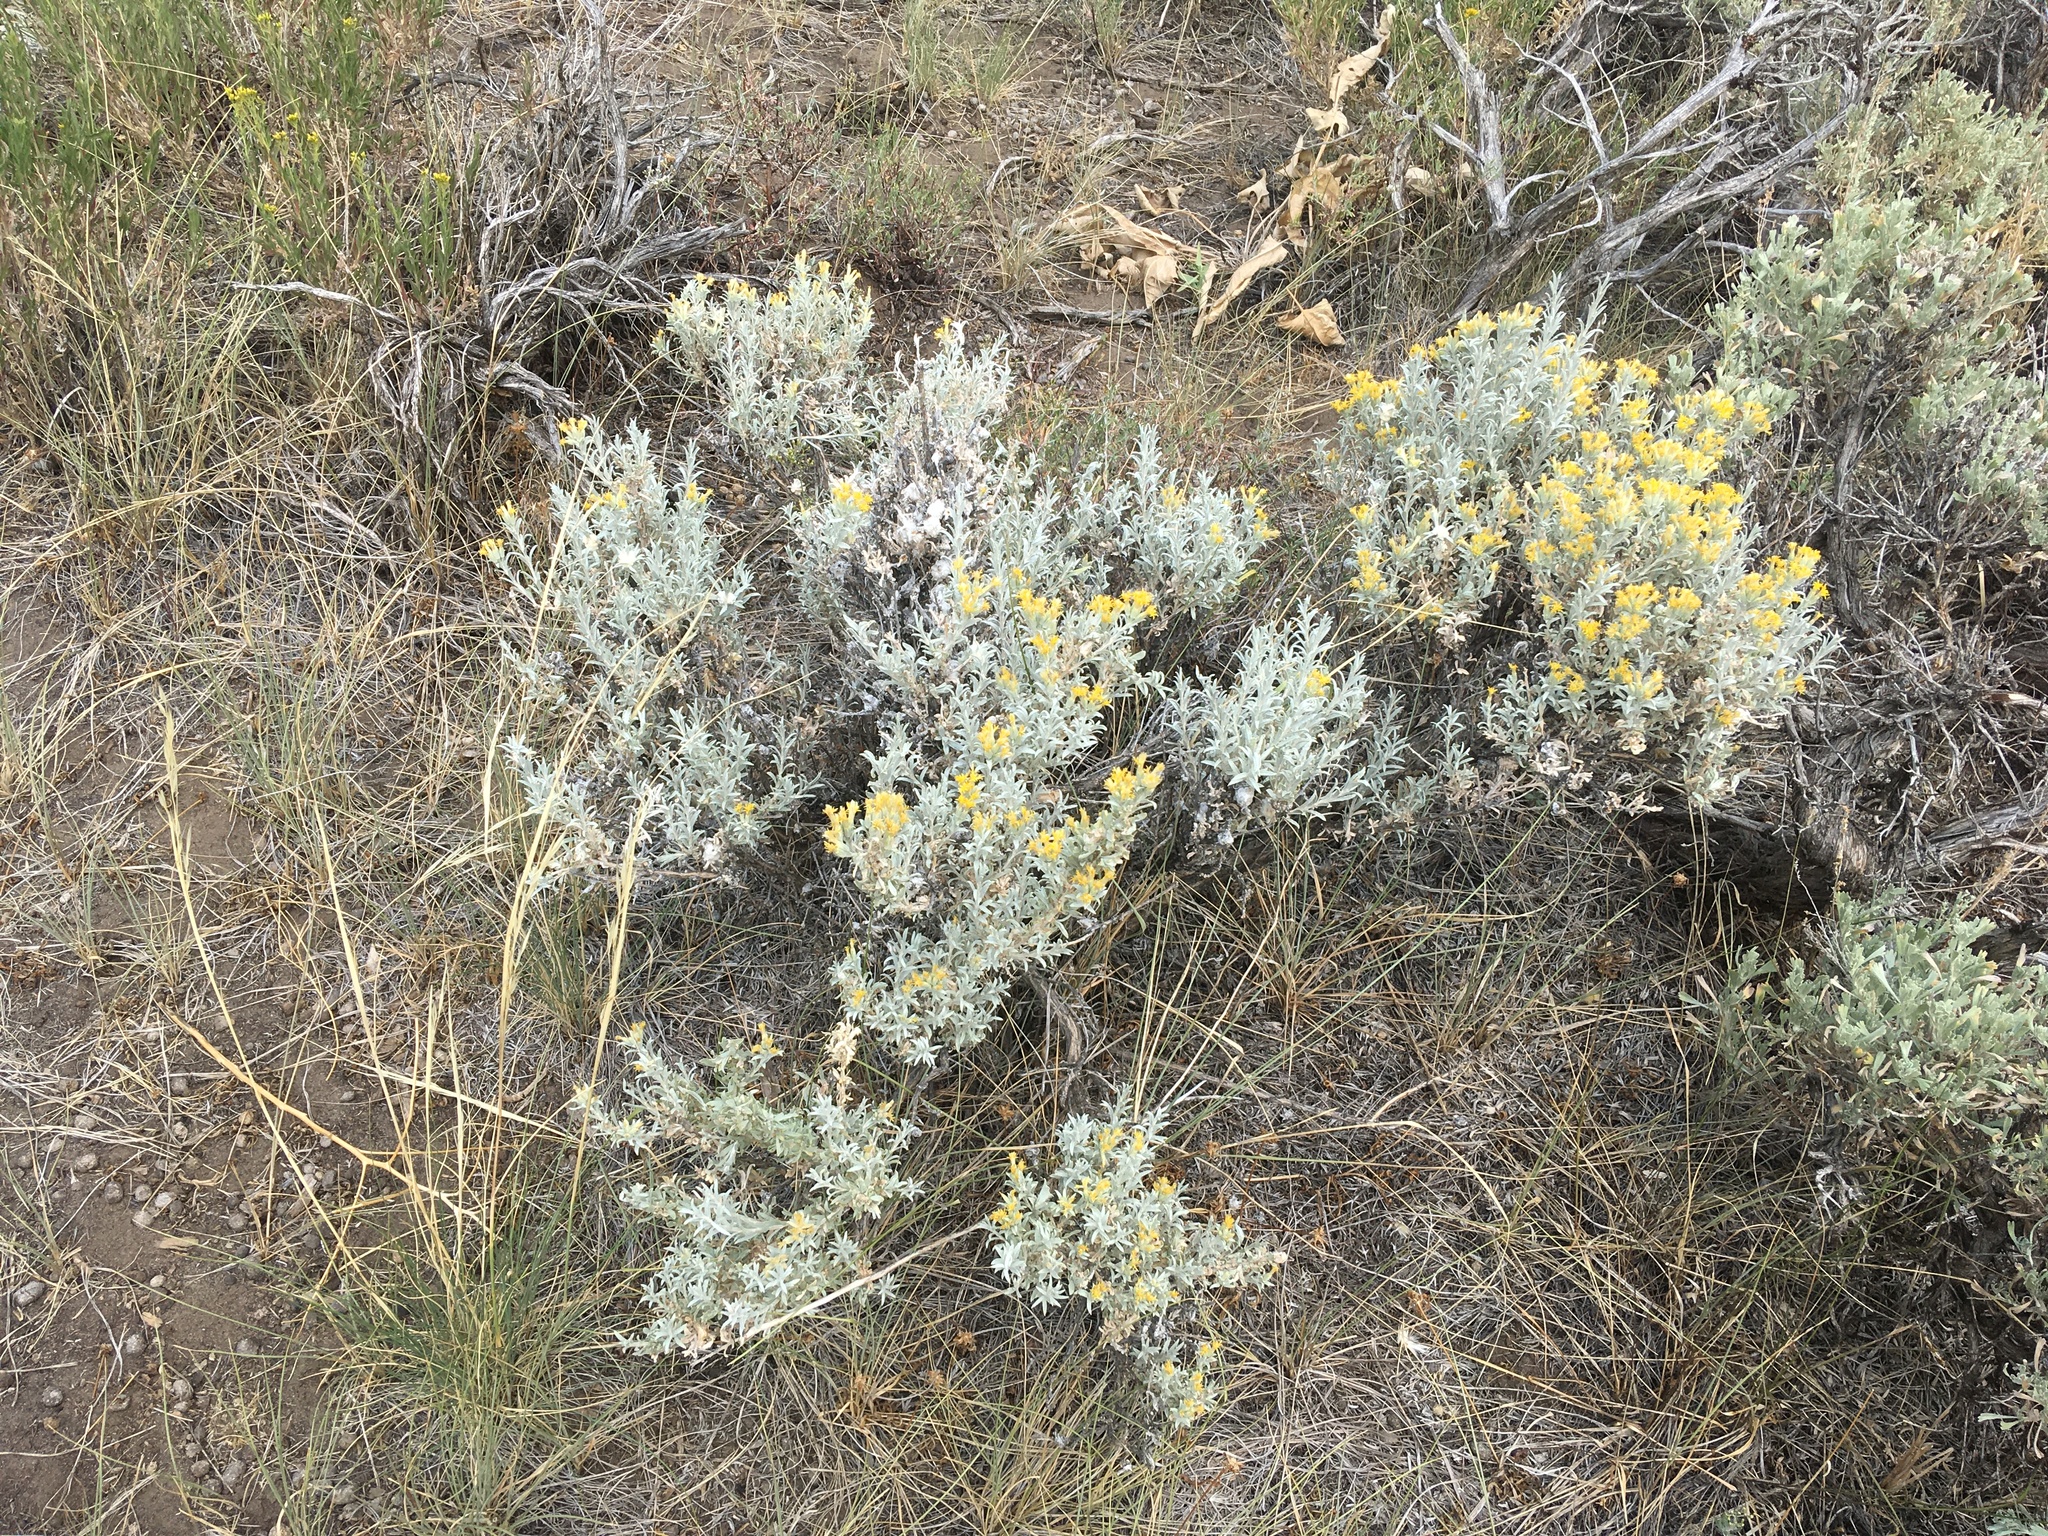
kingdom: Plantae
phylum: Tracheophyta
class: Magnoliopsida
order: Asterales
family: Asteraceae
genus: Tetradymia
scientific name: Tetradymia canescens
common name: Spineless horsebrush
